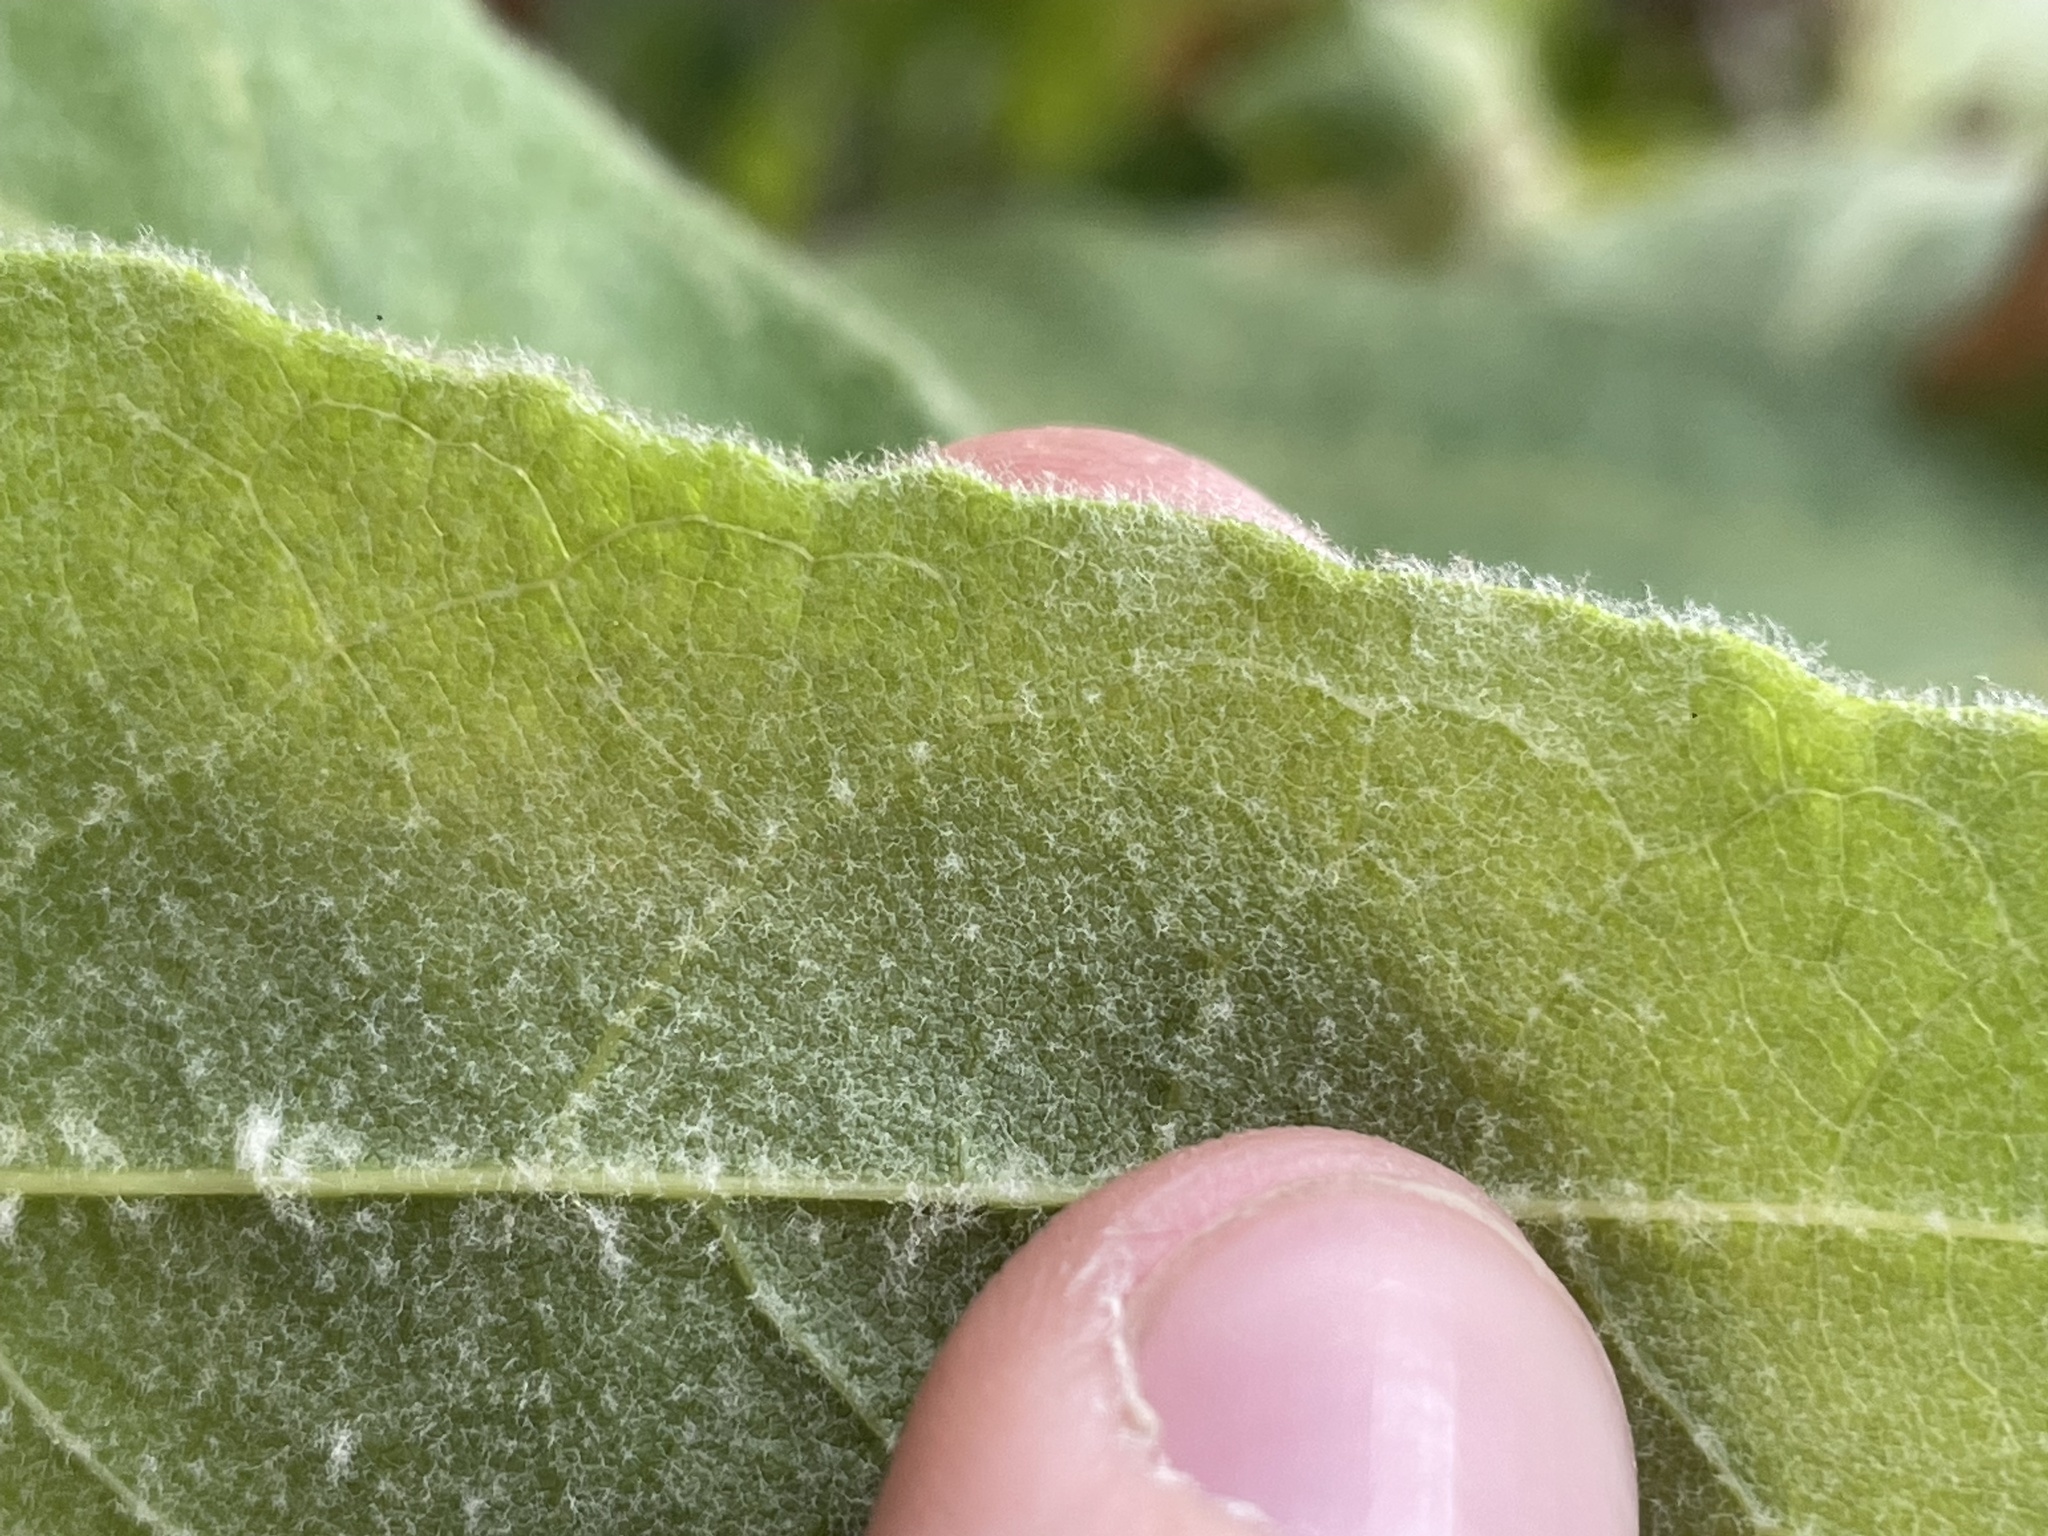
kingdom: Plantae
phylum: Tracheophyta
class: Magnoliopsida
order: Proteales
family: Platanaceae
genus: Platanus
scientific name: Platanus racemosa
